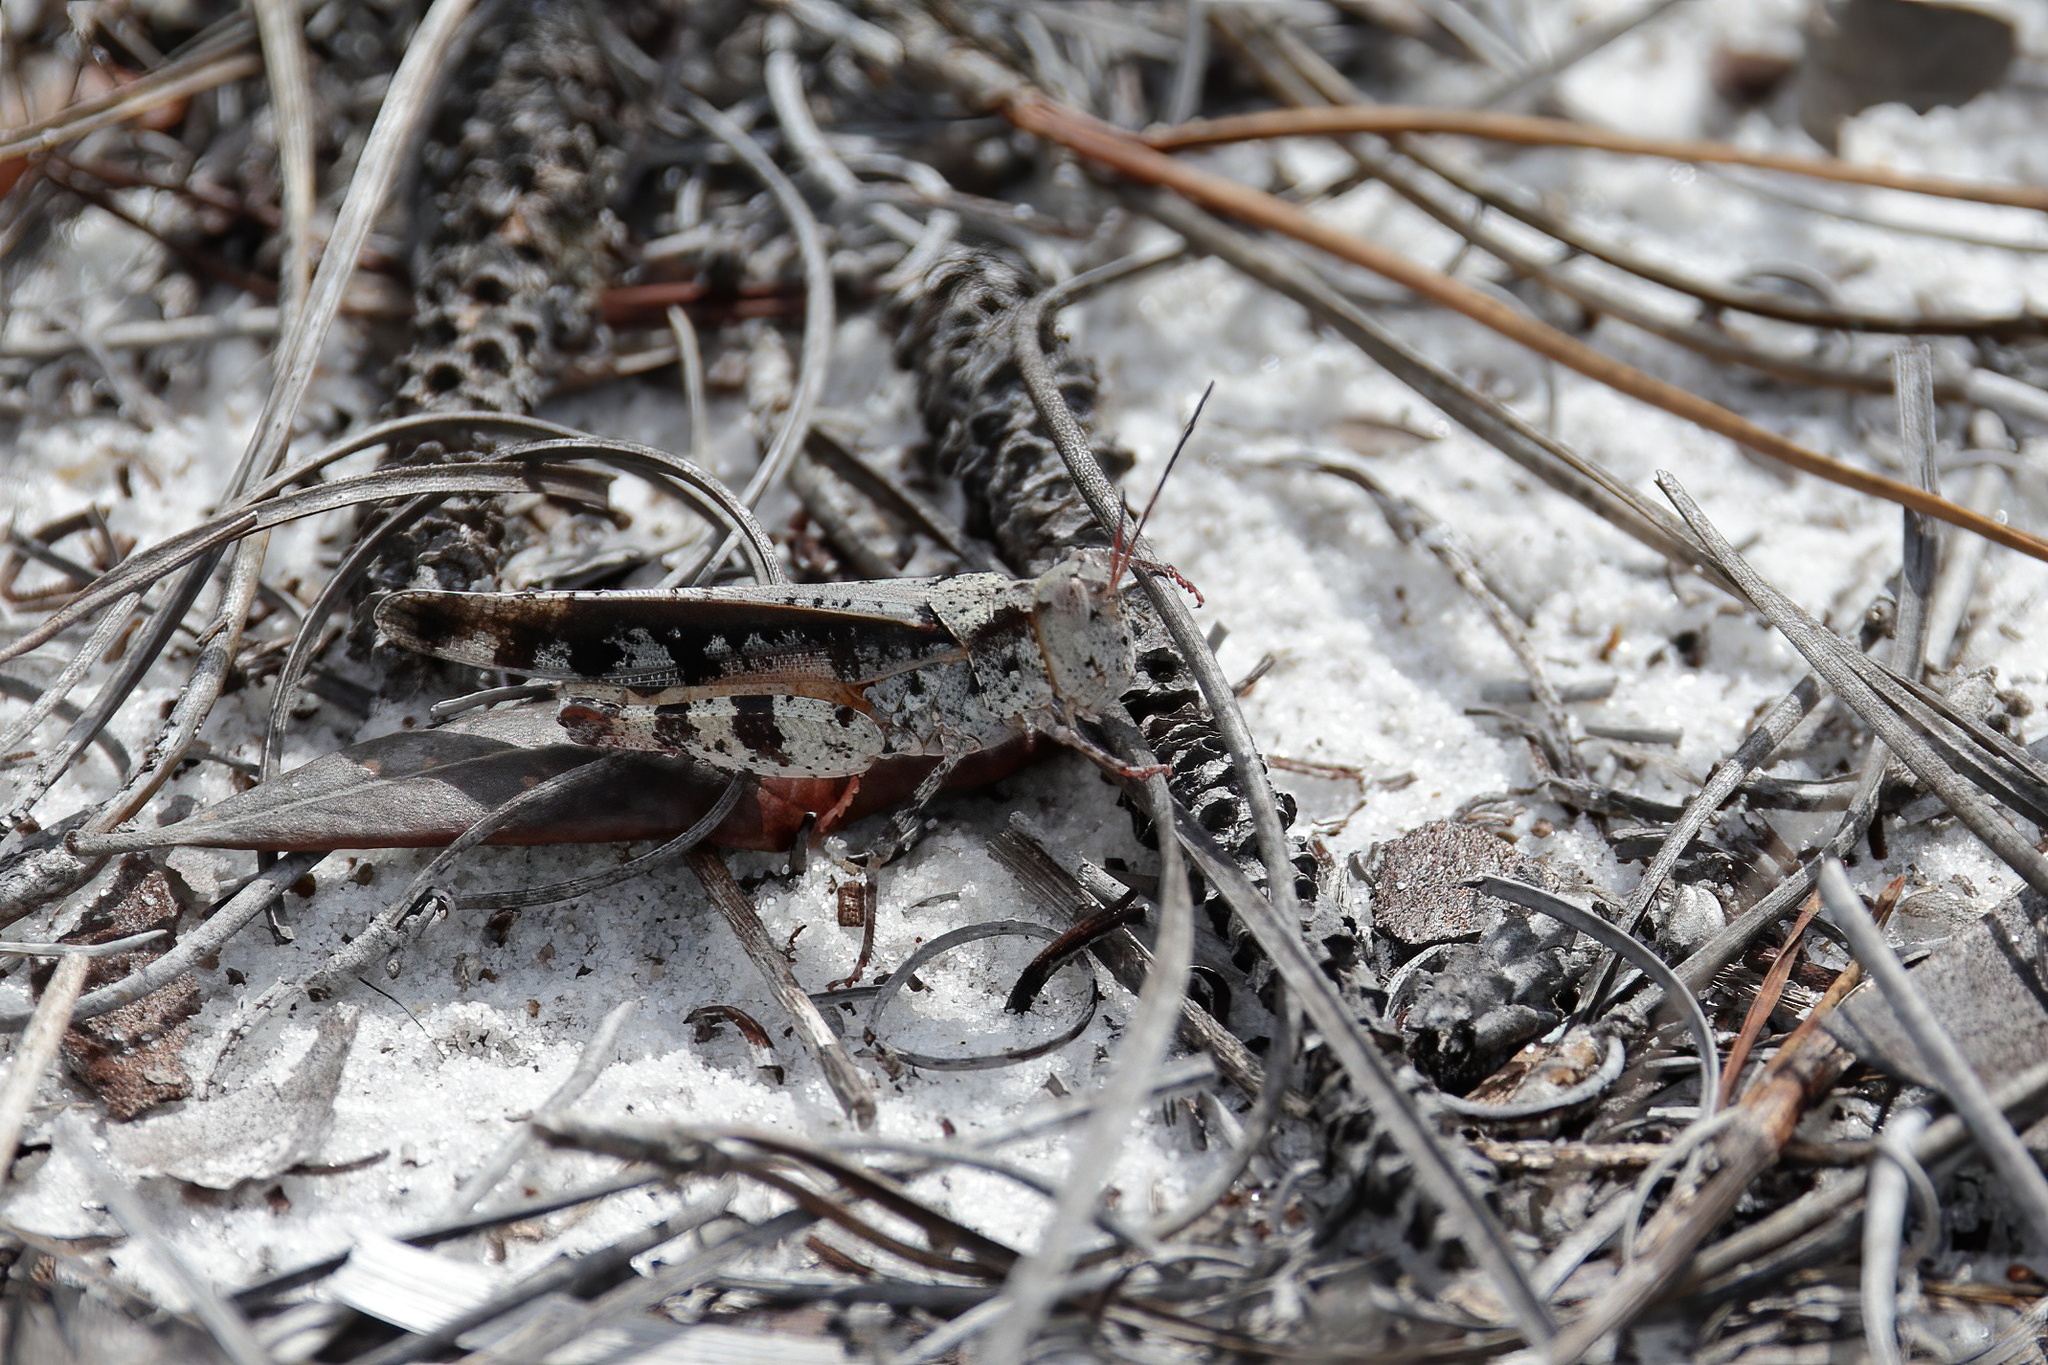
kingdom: Animalia
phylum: Arthropoda
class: Insecta
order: Orthoptera
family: Acrididae
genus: Spharagemon
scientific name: Spharagemon marmoratum
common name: Marbled grasshopper
